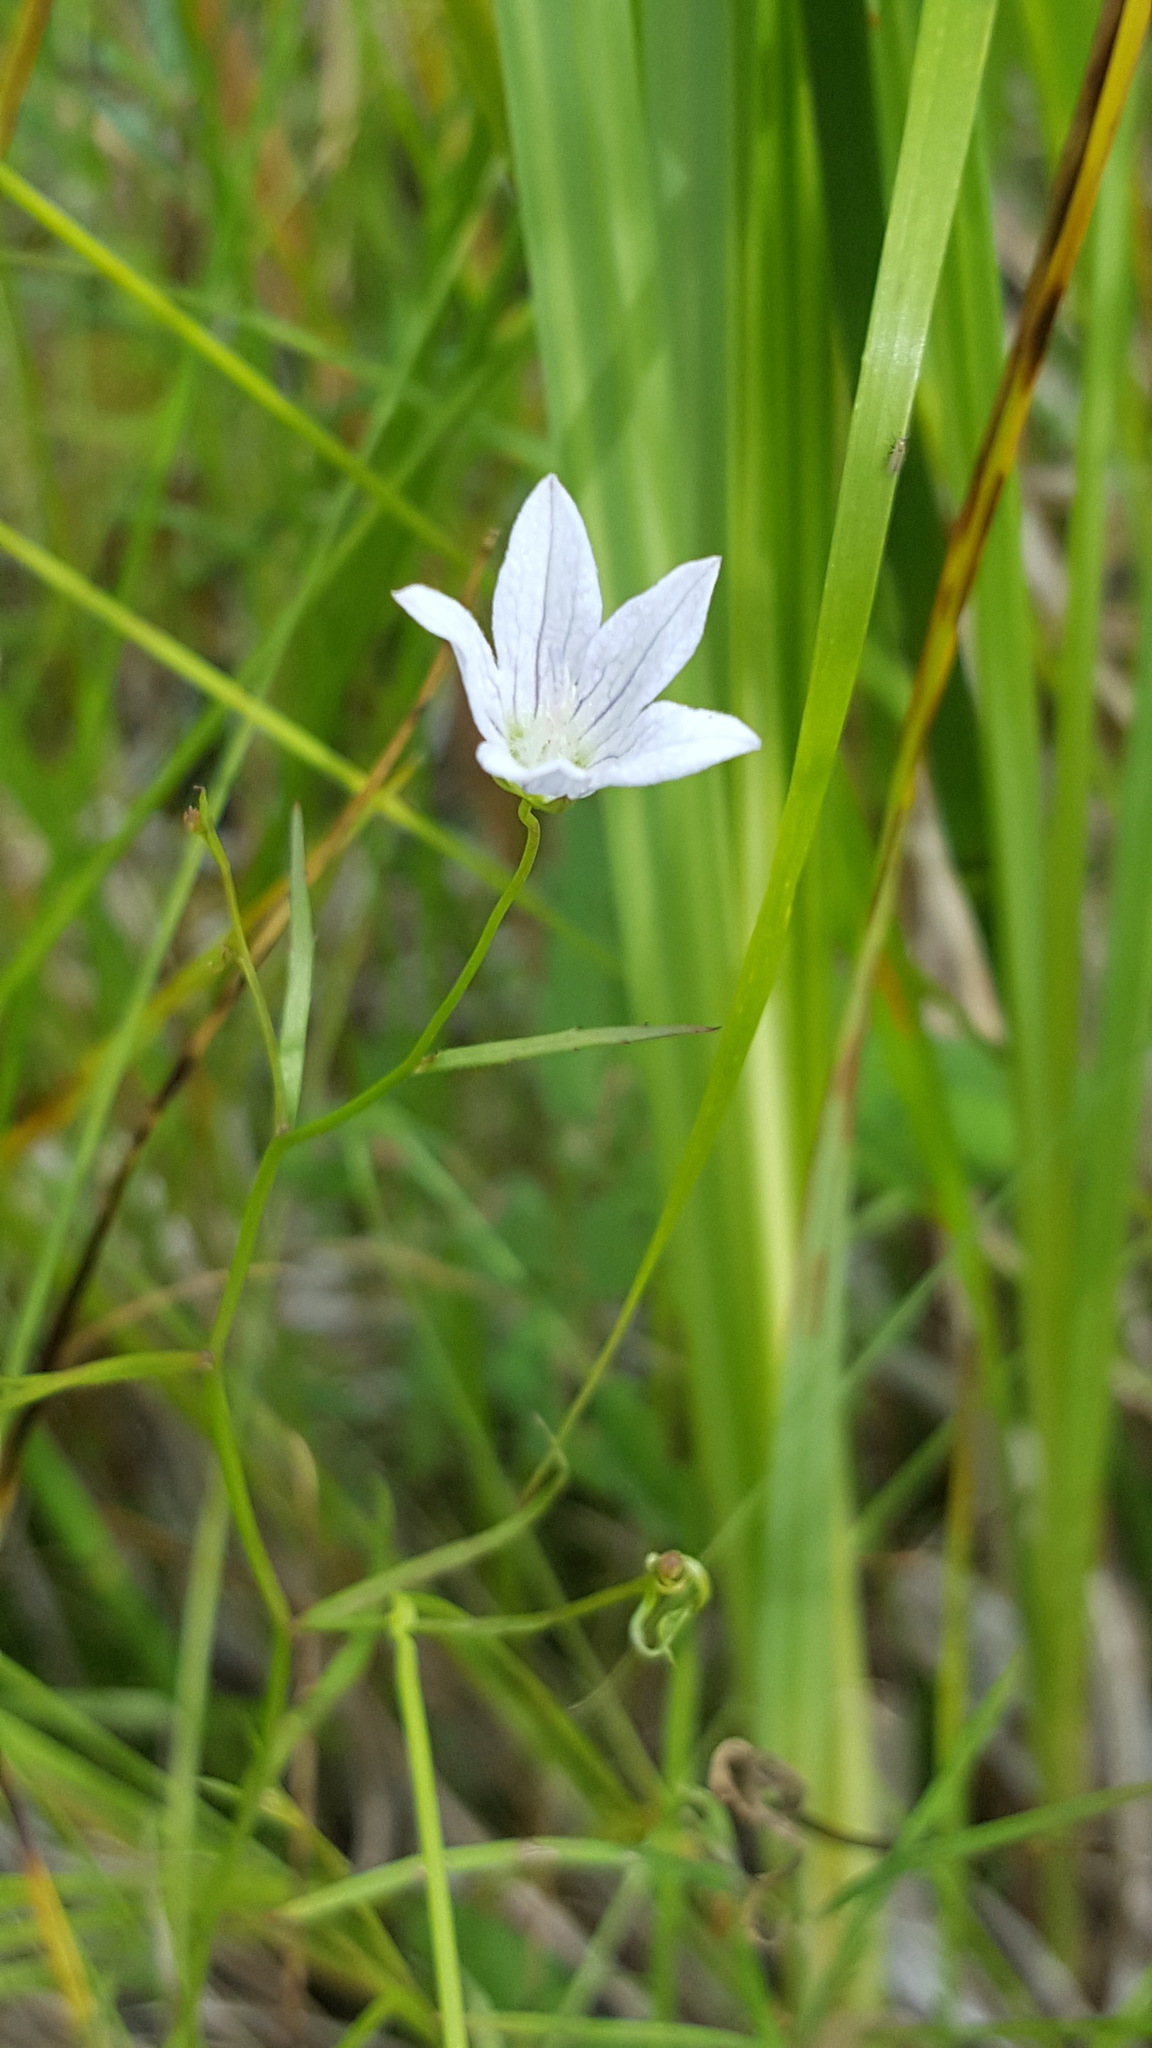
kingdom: Plantae
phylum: Tracheophyta
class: Magnoliopsida
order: Asterales
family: Campanulaceae
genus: Palustricodon
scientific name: Palustricodon aparinoides
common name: Bedstraw bellflower
